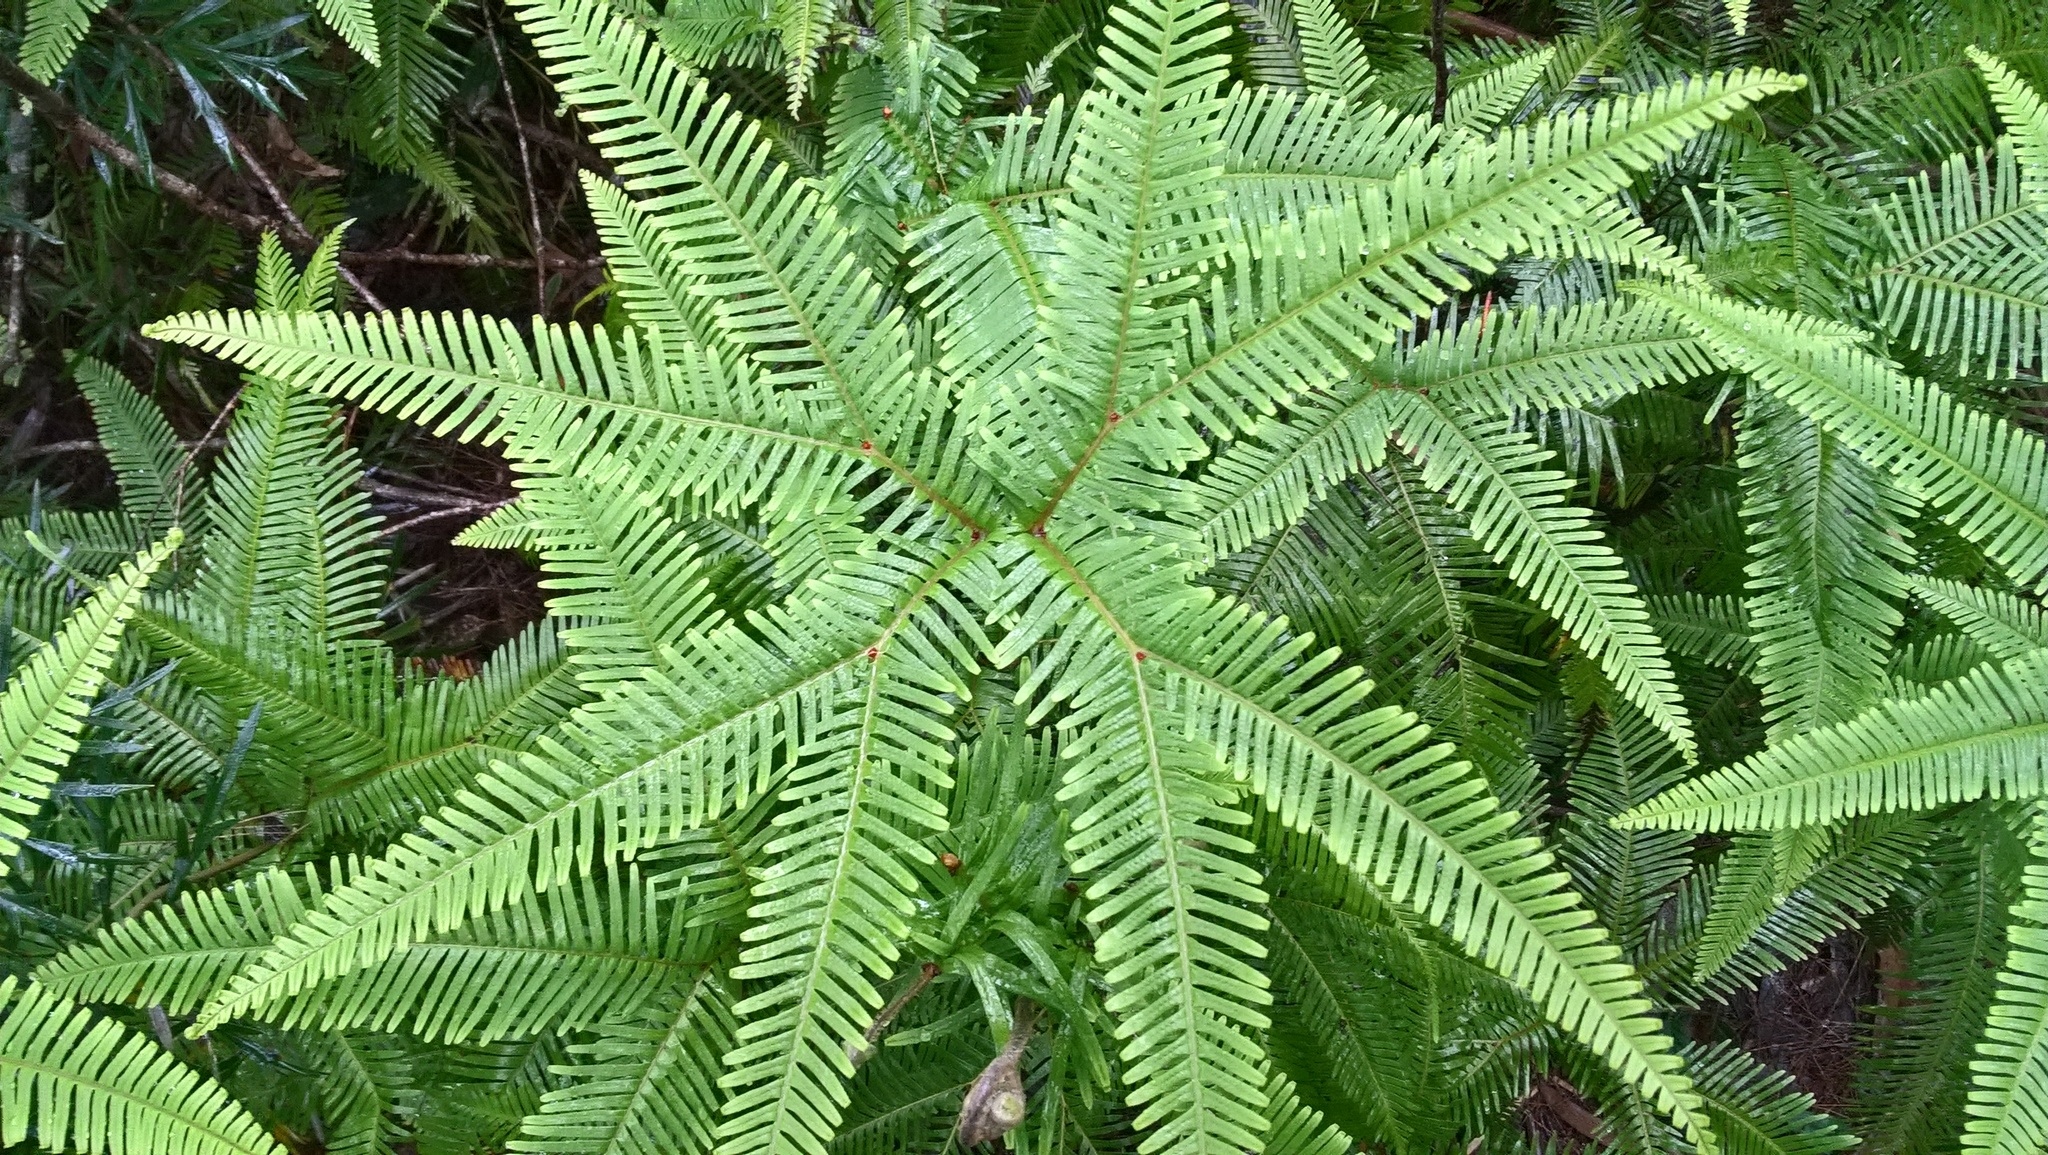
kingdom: Plantae
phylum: Tracheophyta
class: Polypodiopsida
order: Gleicheniales
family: Gleicheniaceae
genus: Sticherus
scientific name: Sticherus flabellatus
